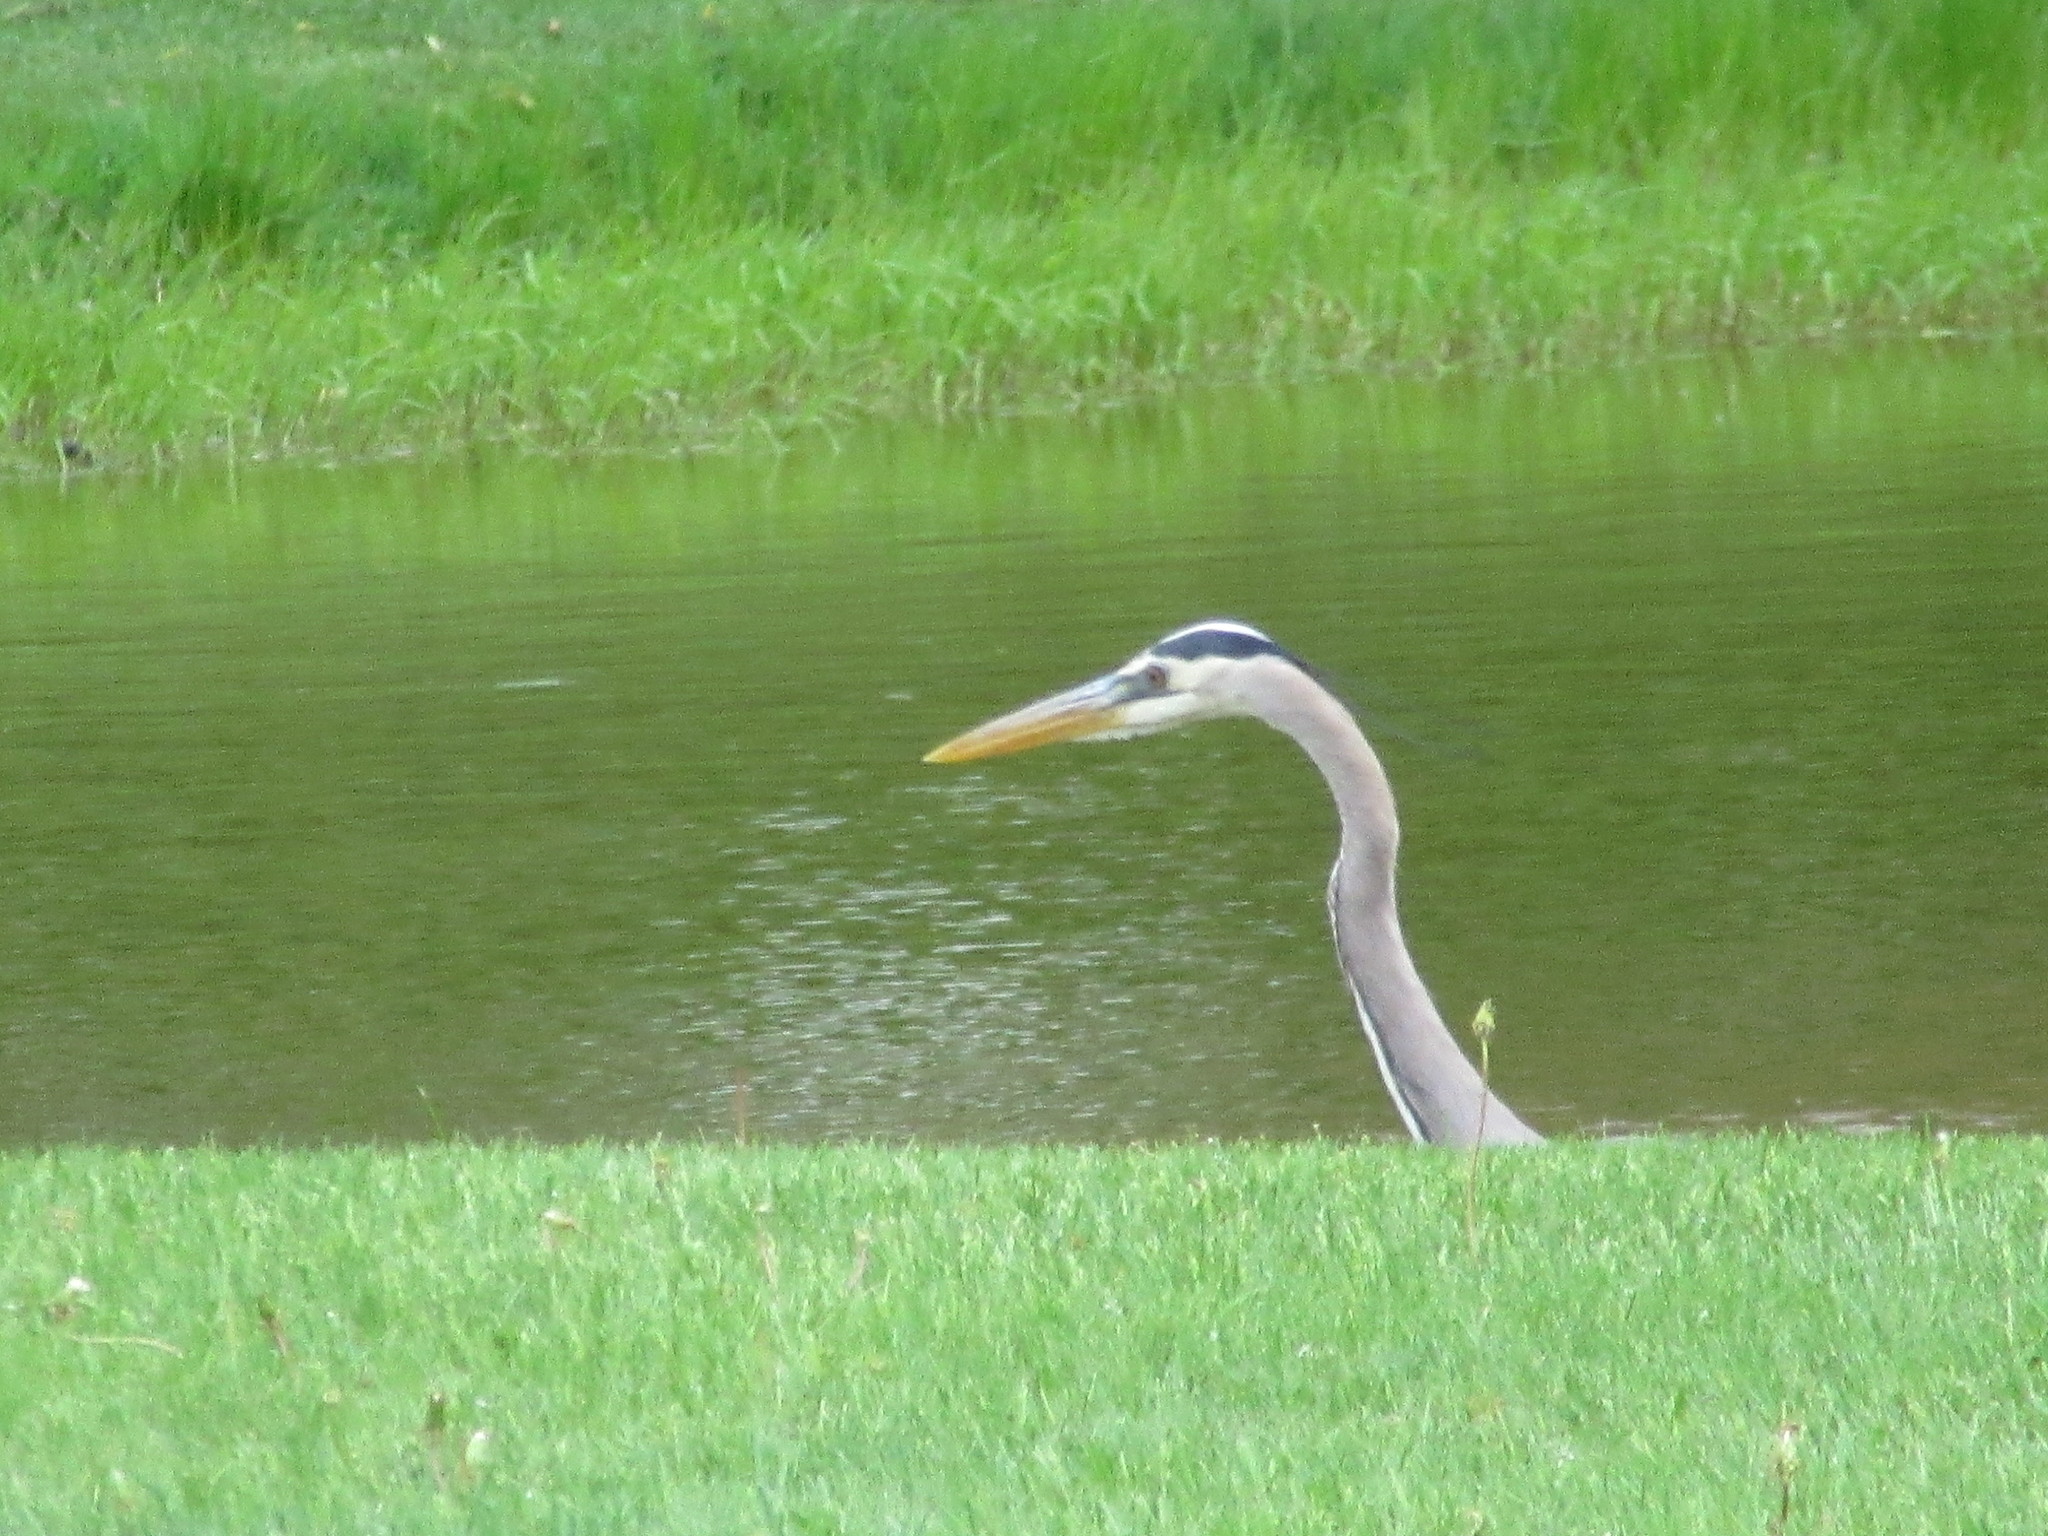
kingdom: Animalia
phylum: Chordata
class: Aves
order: Pelecaniformes
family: Ardeidae
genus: Ardea
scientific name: Ardea herodias
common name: Great blue heron
